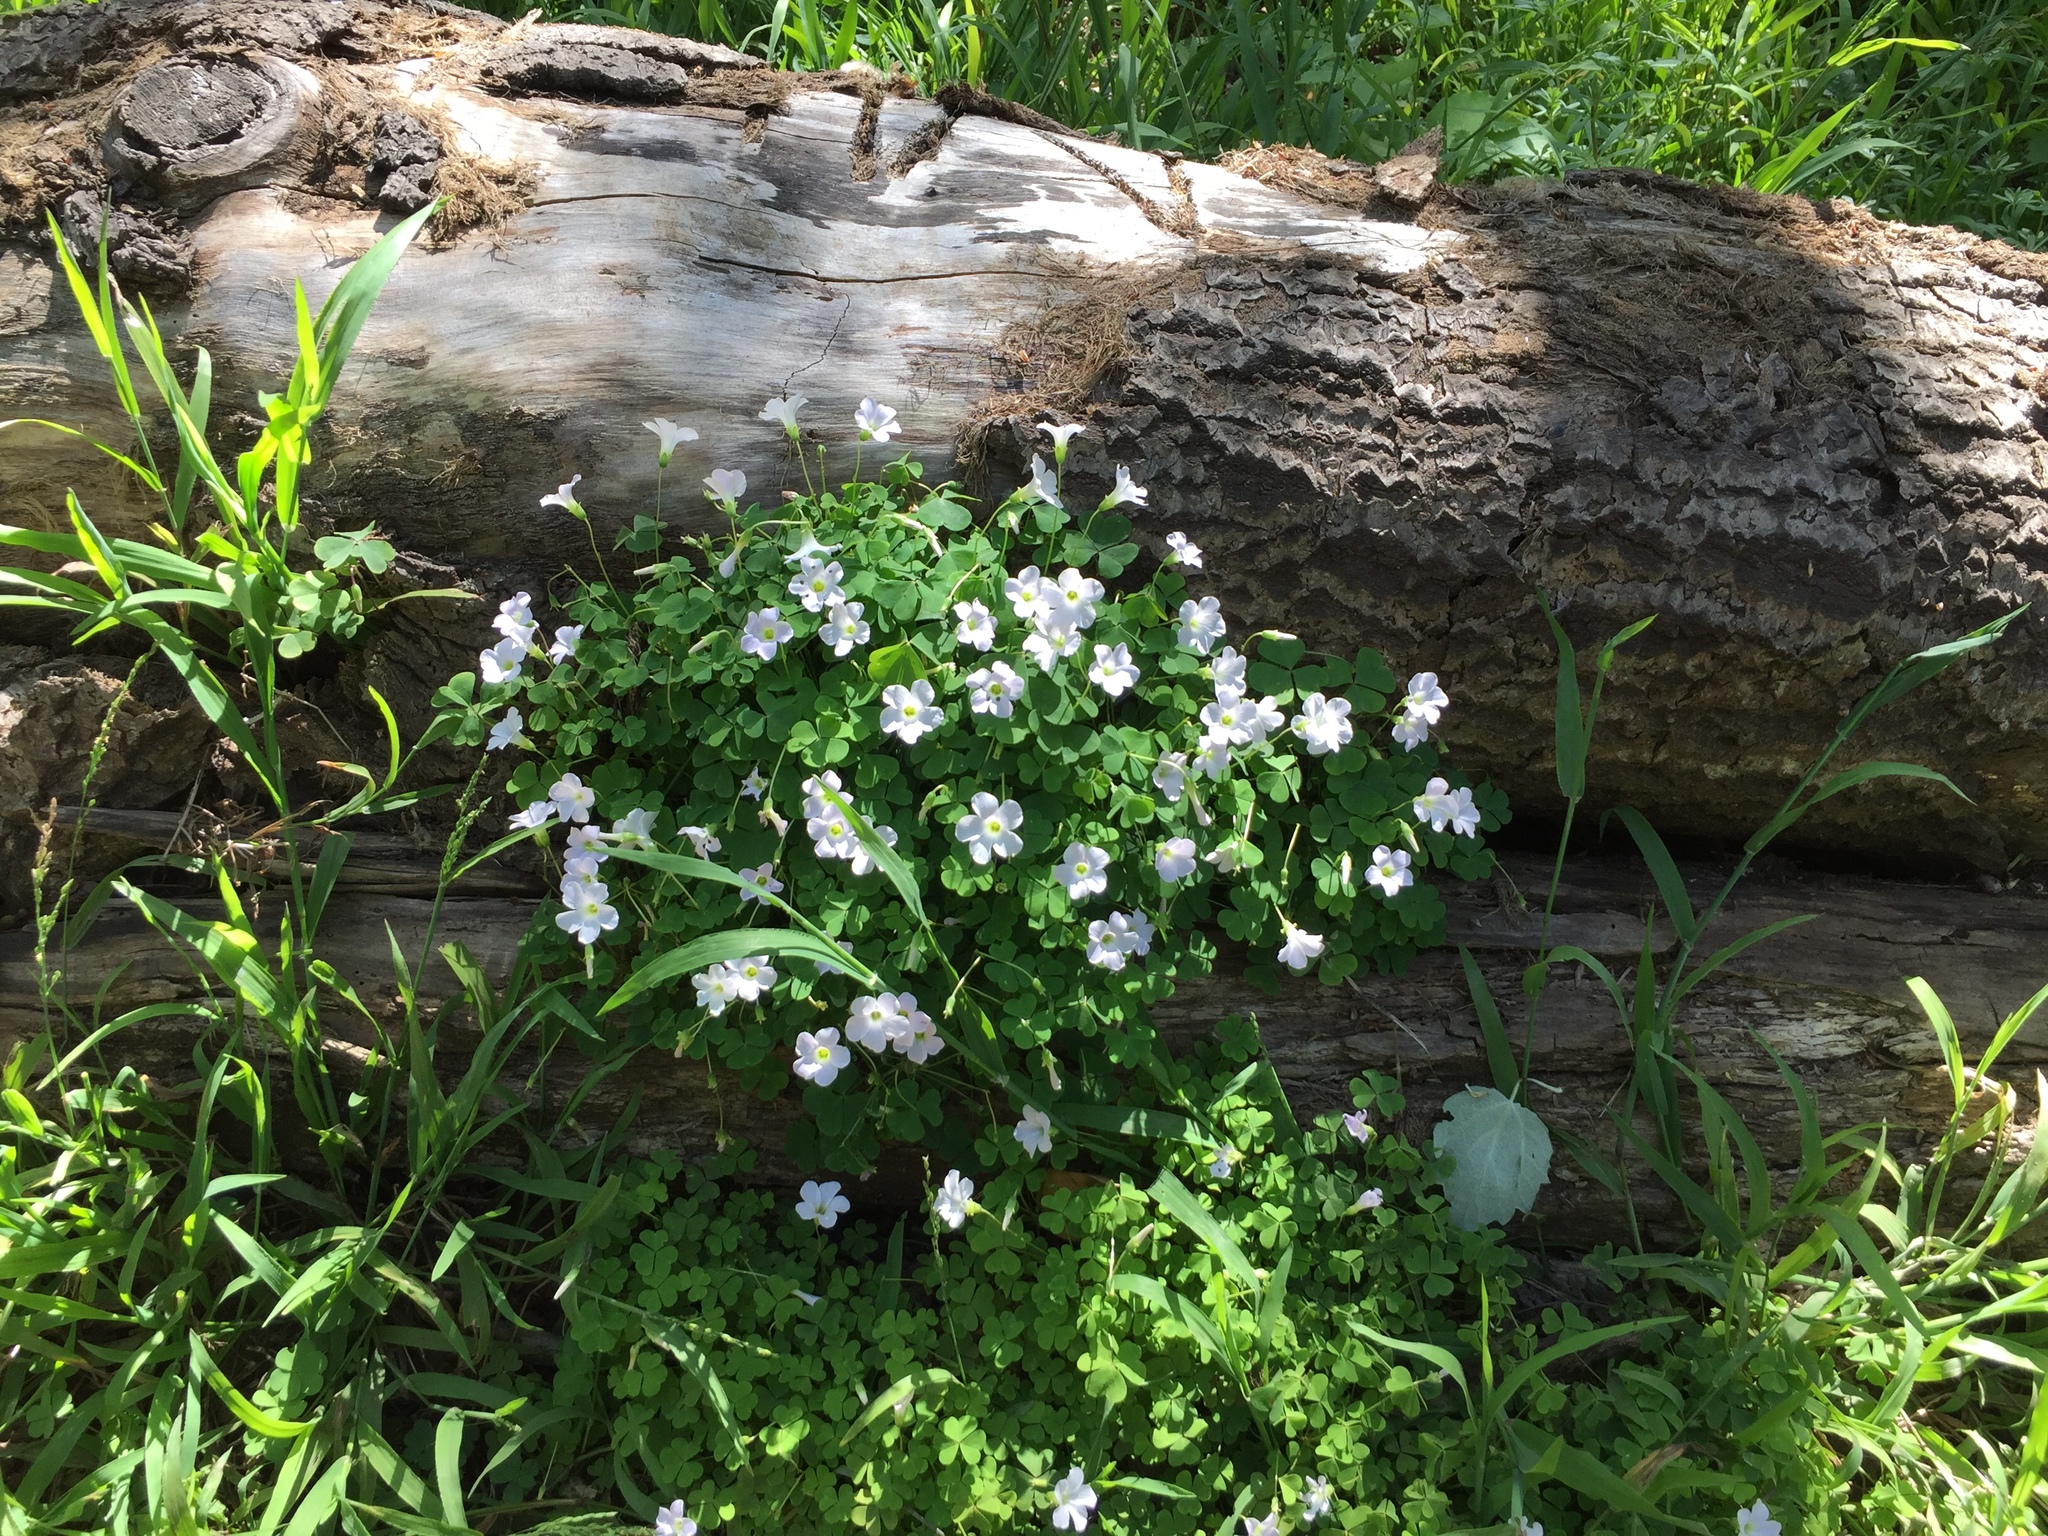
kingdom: Plantae
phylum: Tracheophyta
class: Magnoliopsida
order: Oxalidales
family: Oxalidaceae
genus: Oxalis
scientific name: Oxalis incarnata
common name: Pale pink-sorrel
